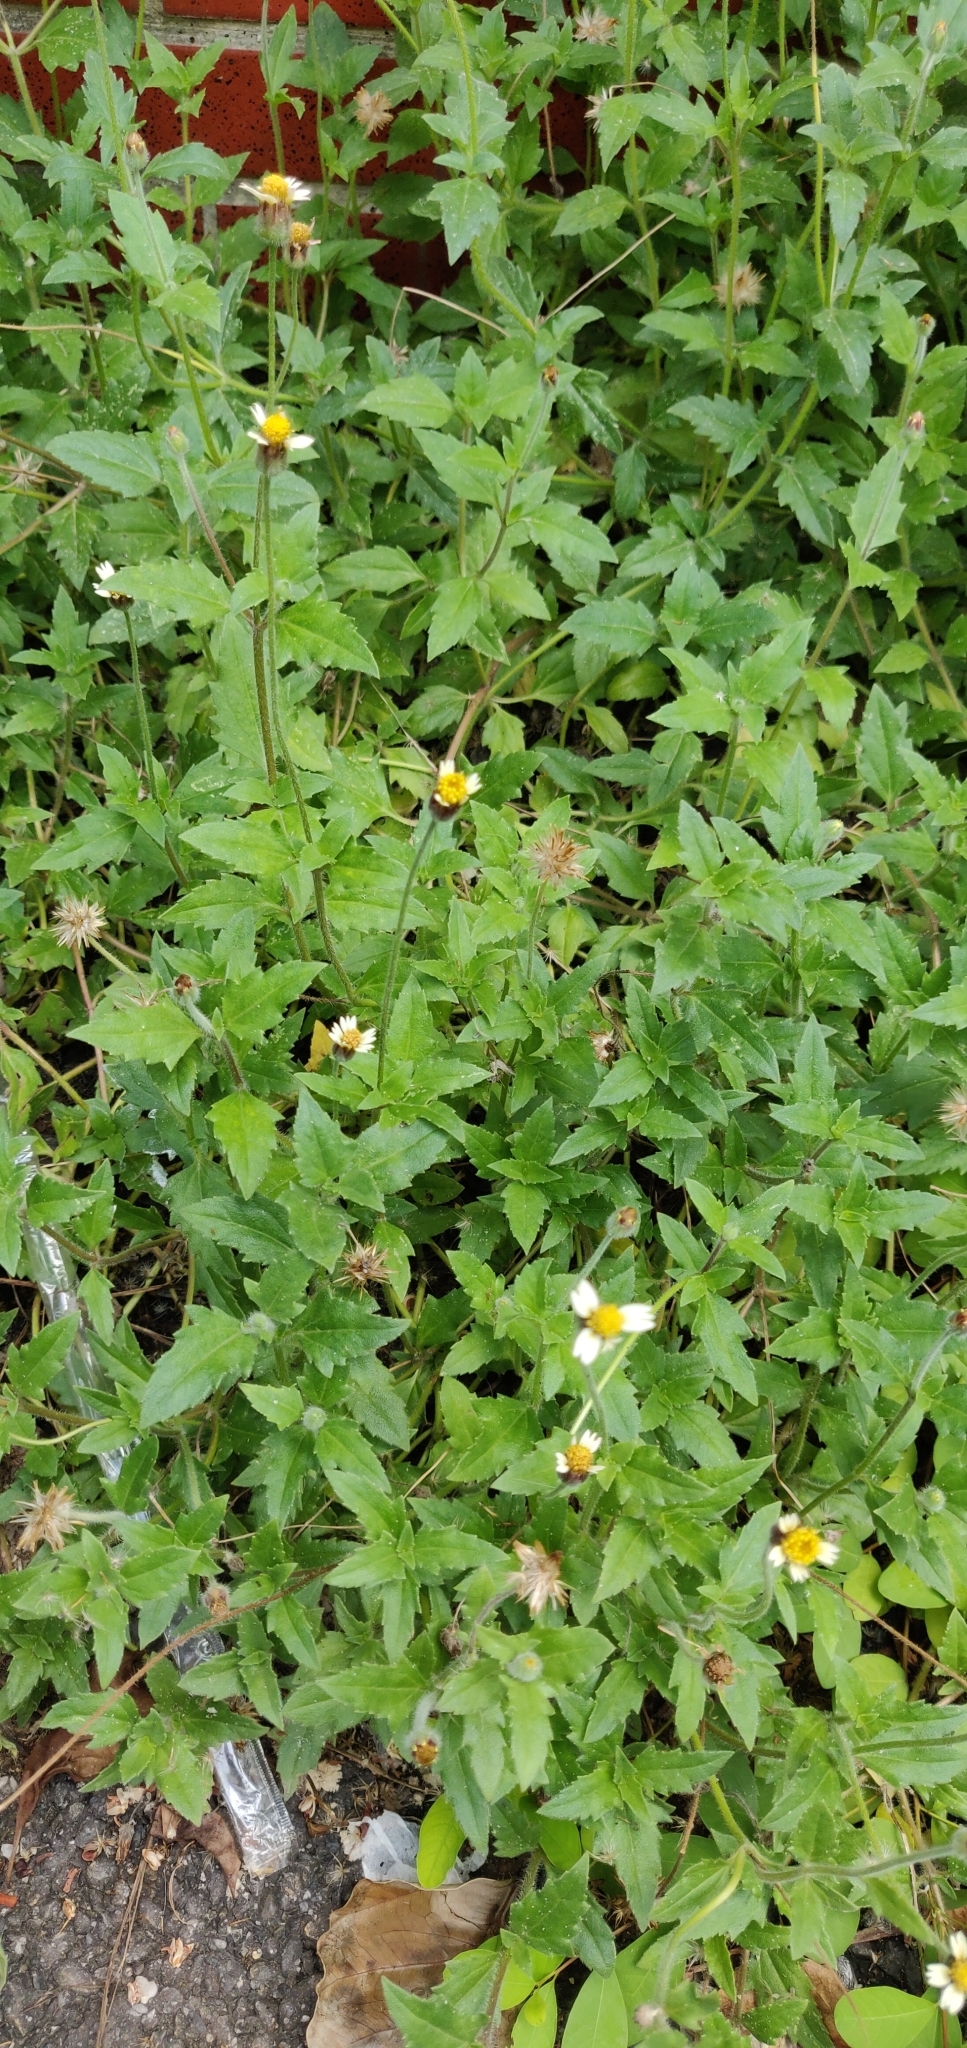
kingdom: Plantae
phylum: Tracheophyta
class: Magnoliopsida
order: Asterales
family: Asteraceae
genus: Tridax
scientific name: Tridax procumbens
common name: Coatbuttons
